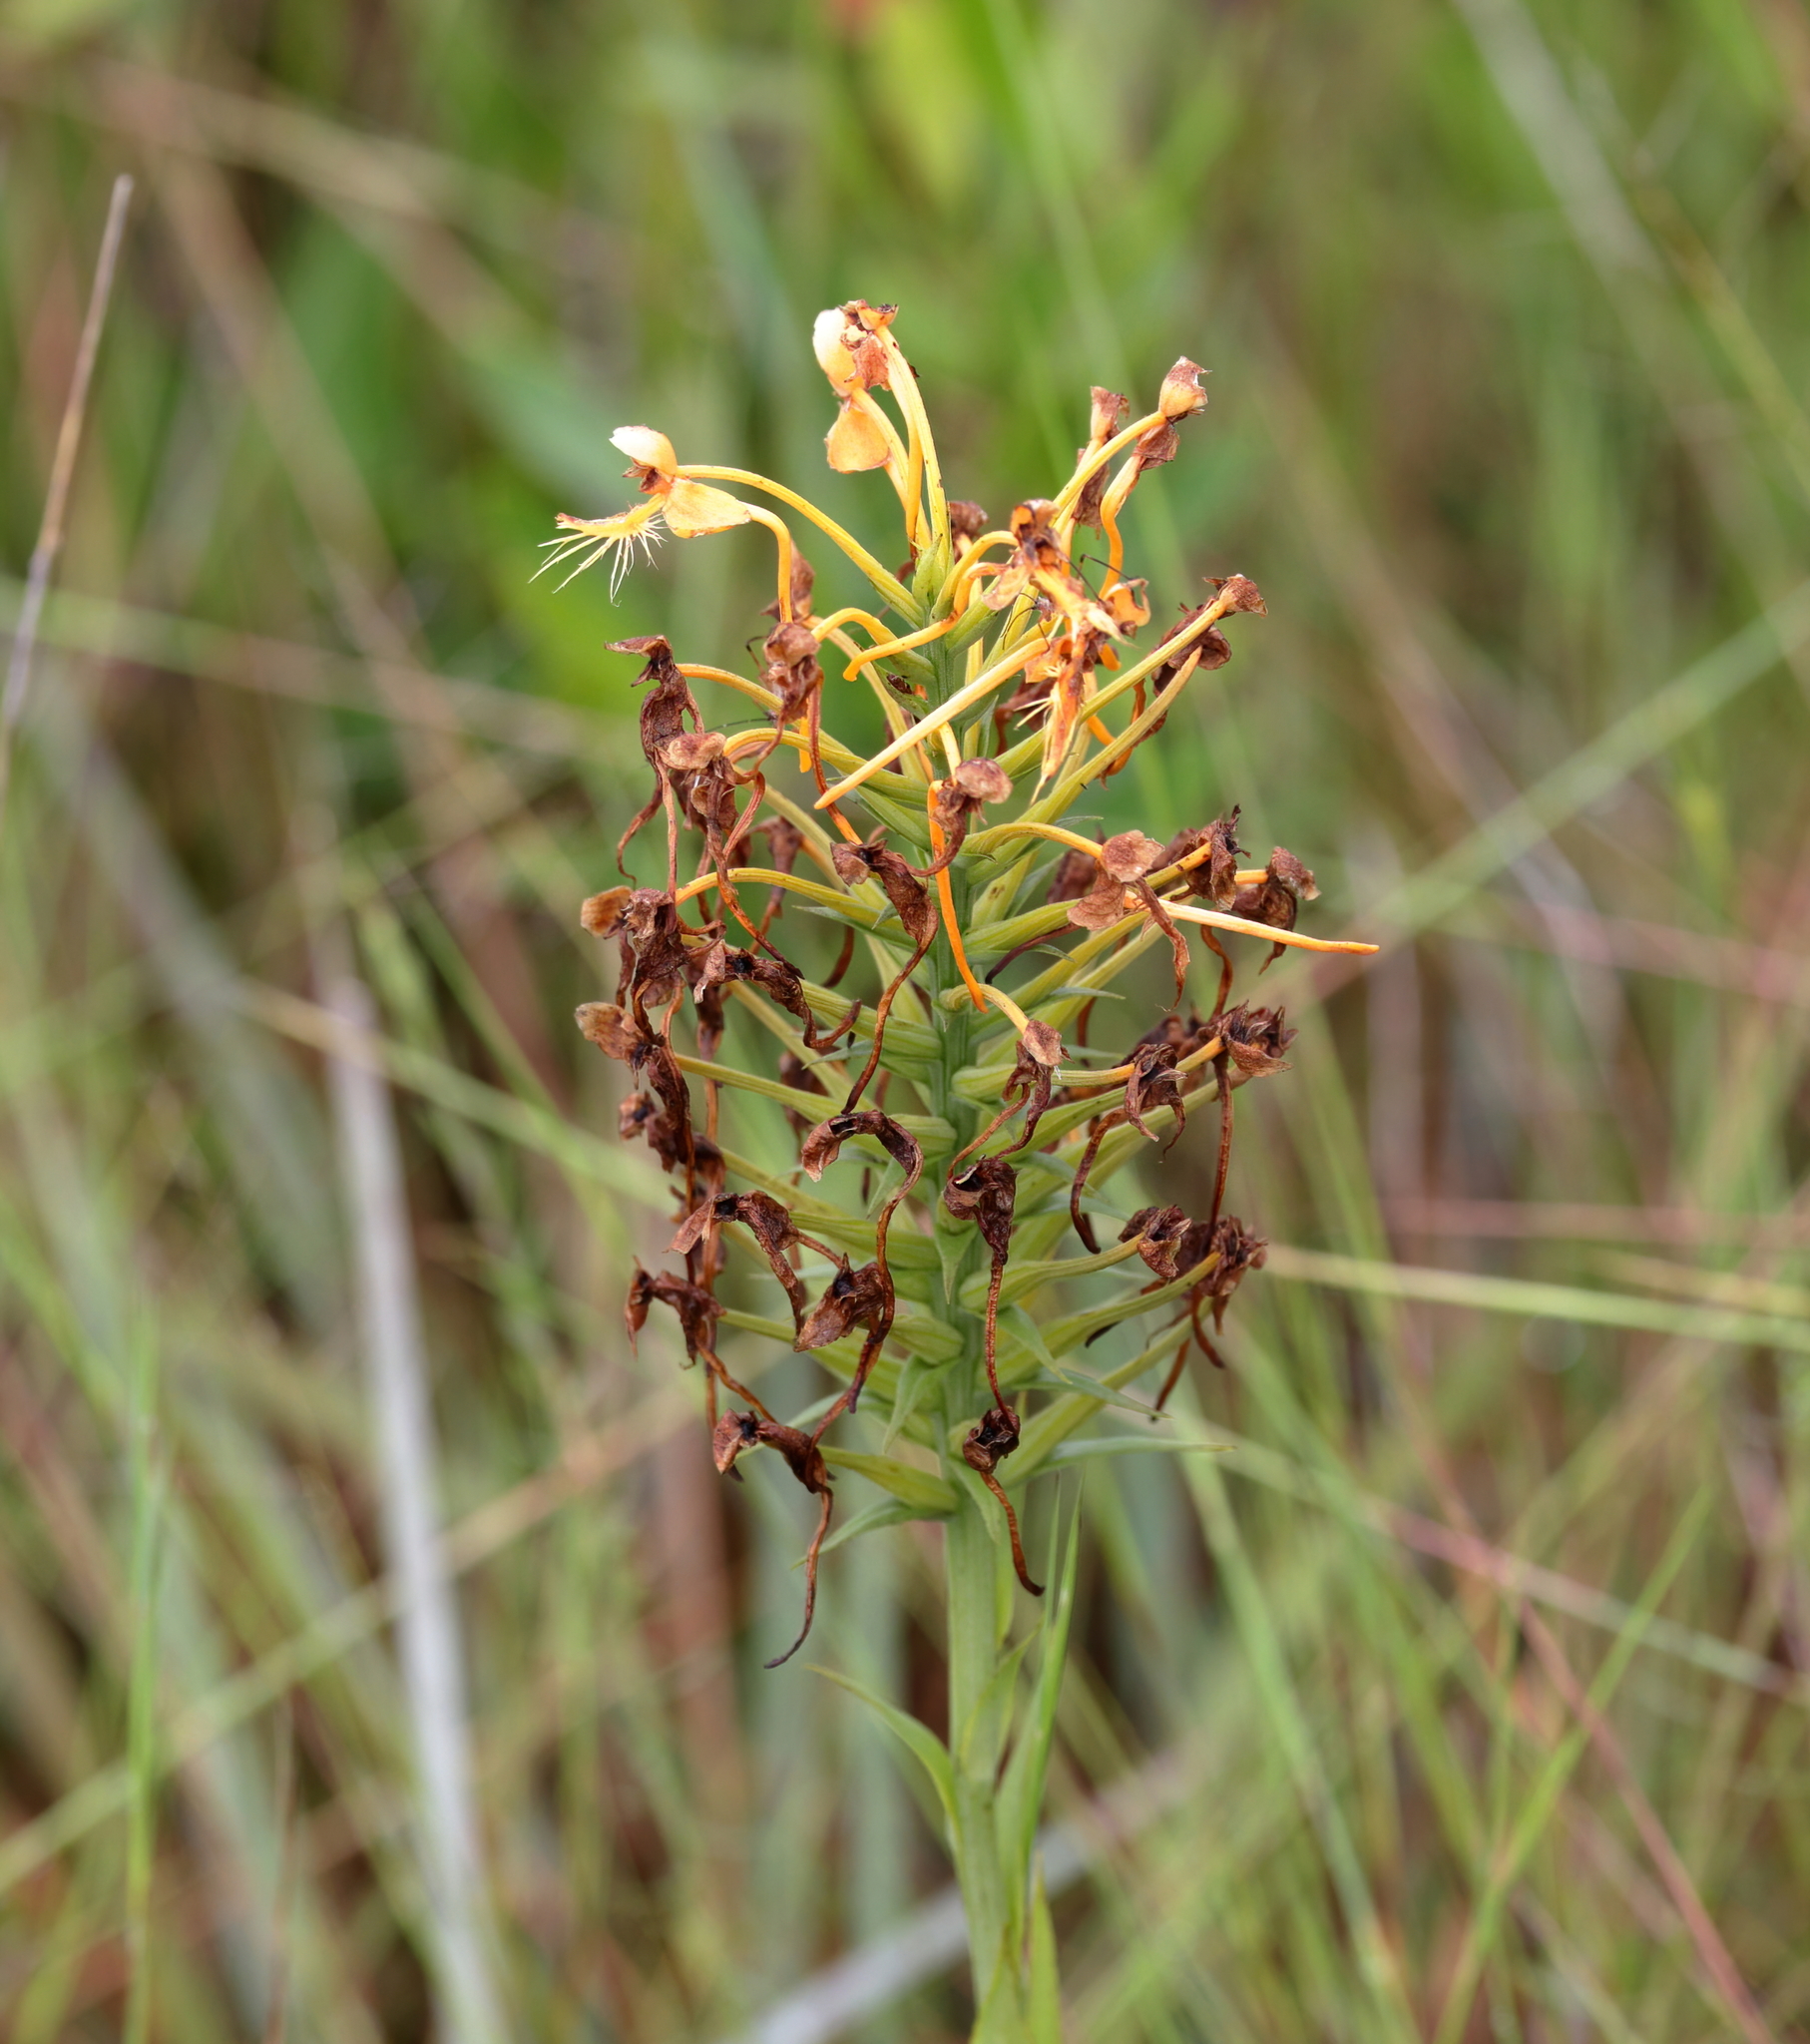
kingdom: Plantae
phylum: Tracheophyta
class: Liliopsida
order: Asparagales
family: Orchidaceae
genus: Platanthera
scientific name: Platanthera ciliaris
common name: Yellow fringed orchid
